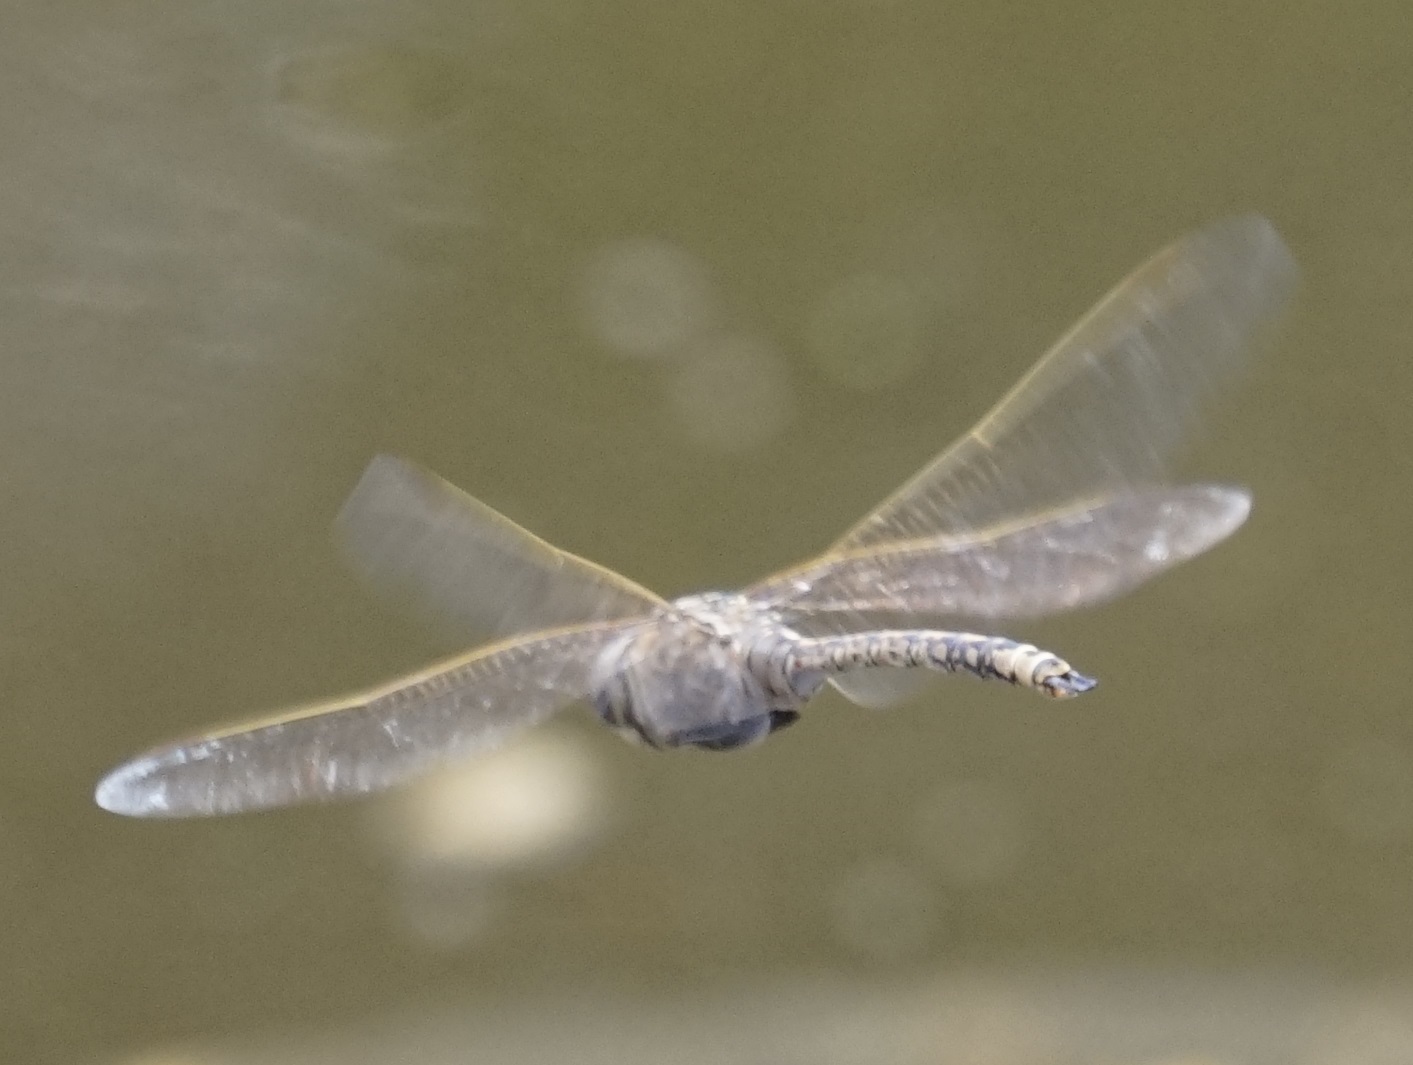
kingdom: Animalia
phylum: Arthropoda
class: Insecta
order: Odonata
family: Aeshnidae
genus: Anax
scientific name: Anax papuensis
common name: Australian emperor
